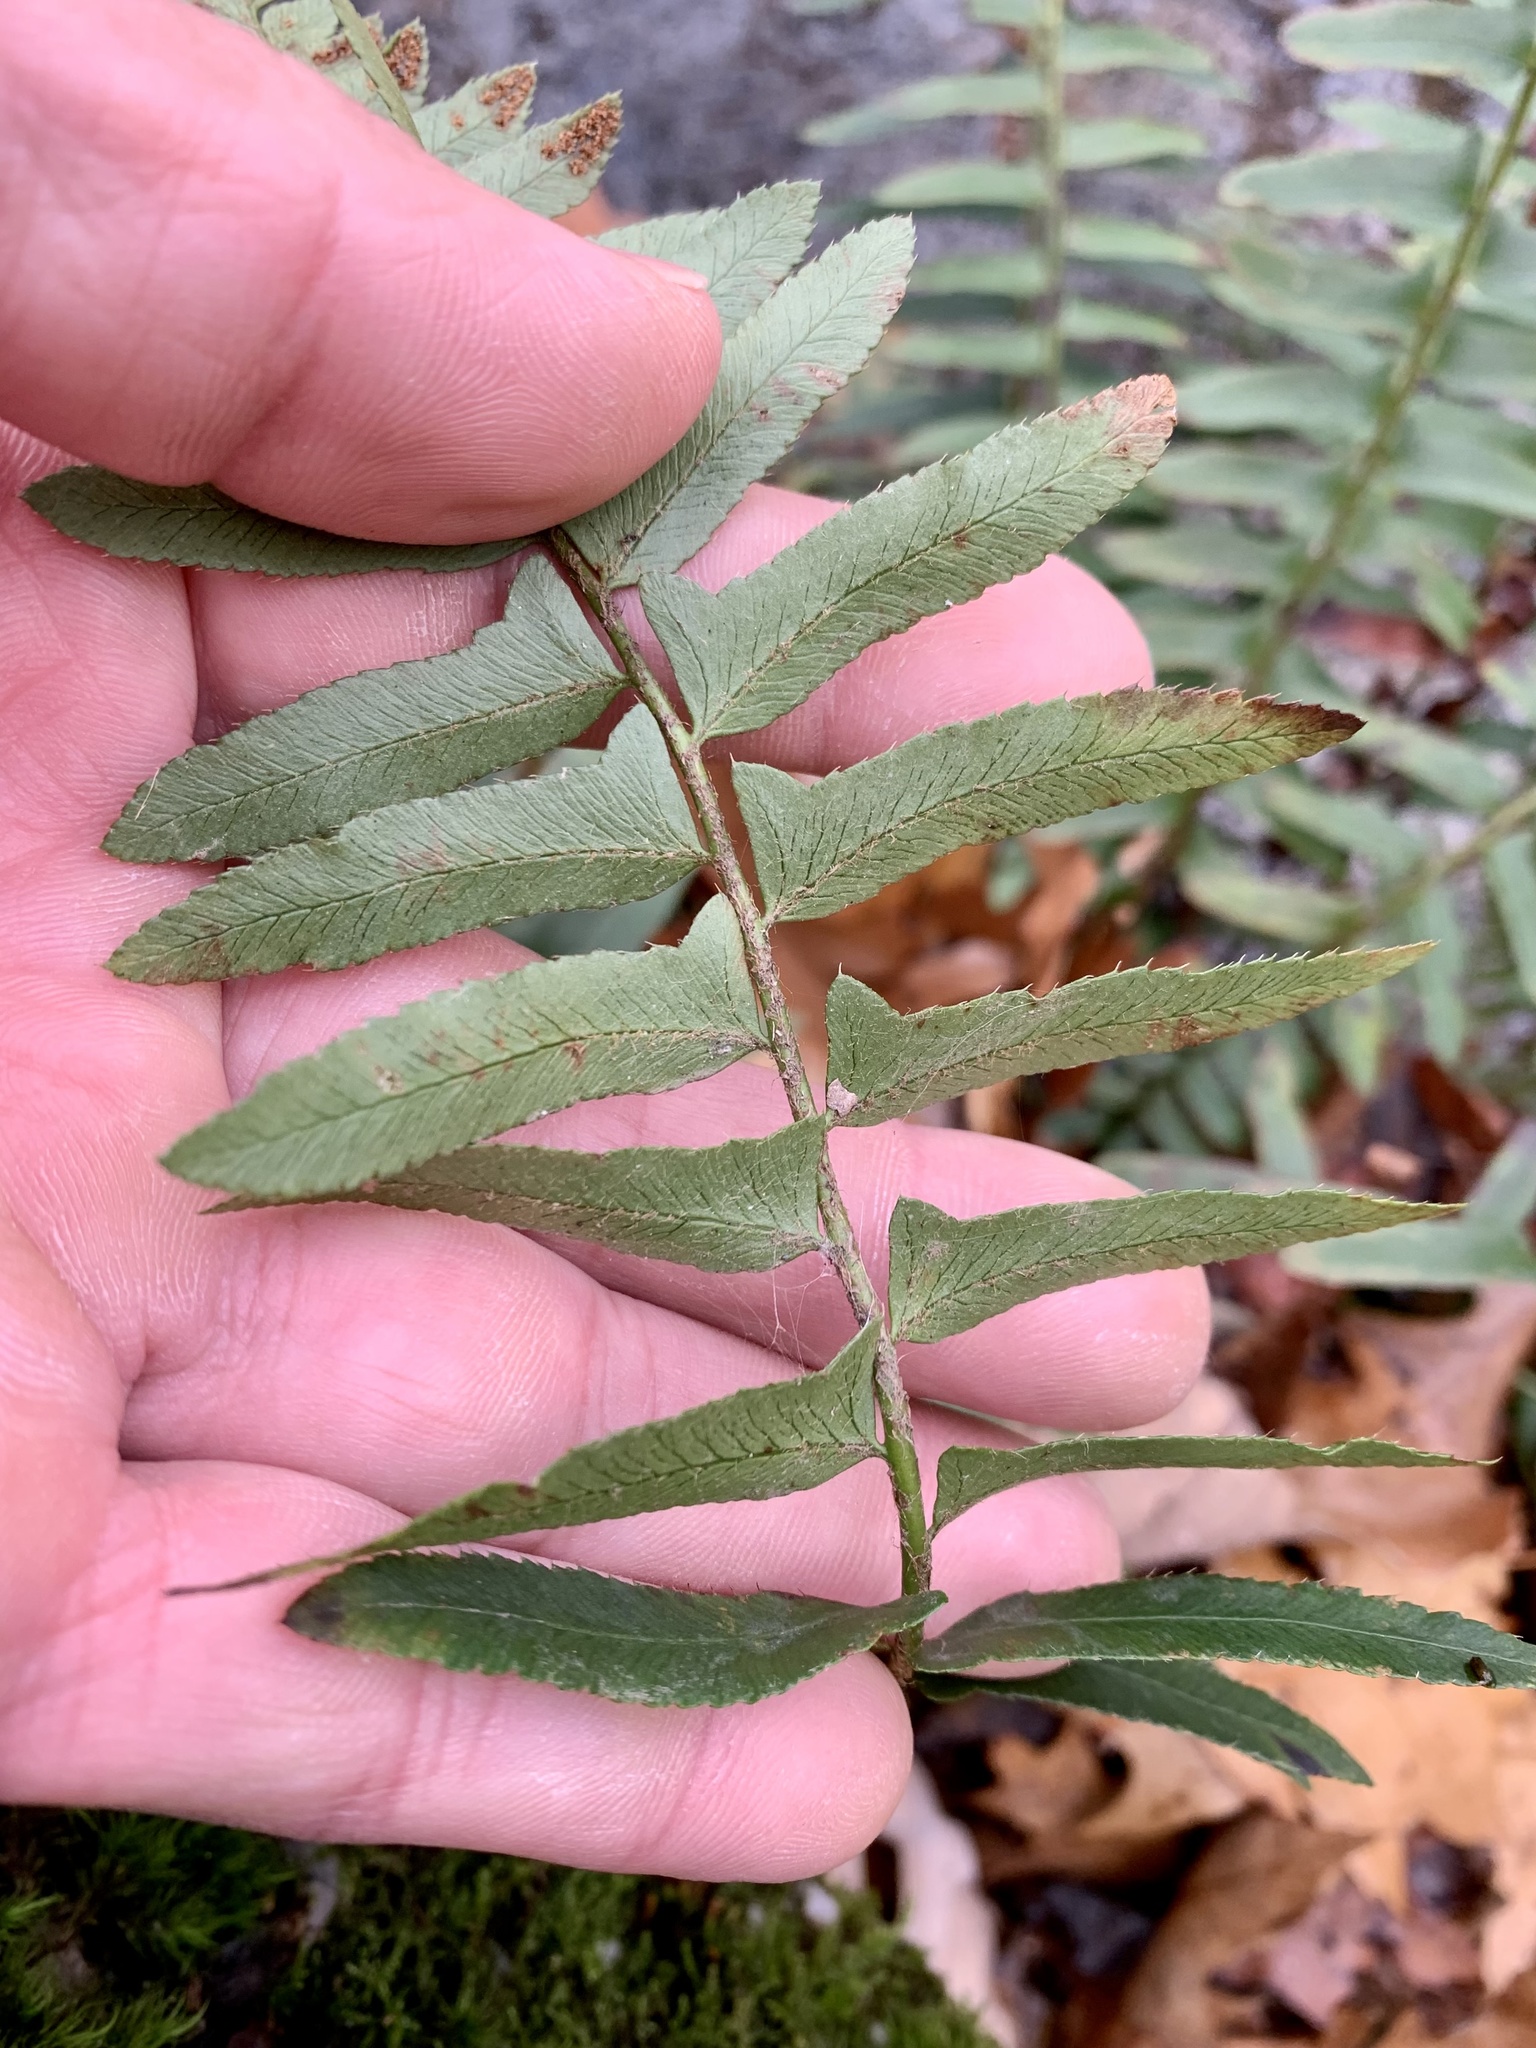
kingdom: Plantae
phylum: Tracheophyta
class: Polypodiopsida
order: Polypodiales
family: Dryopteridaceae
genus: Polystichum
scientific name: Polystichum acrostichoides
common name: Christmas fern
